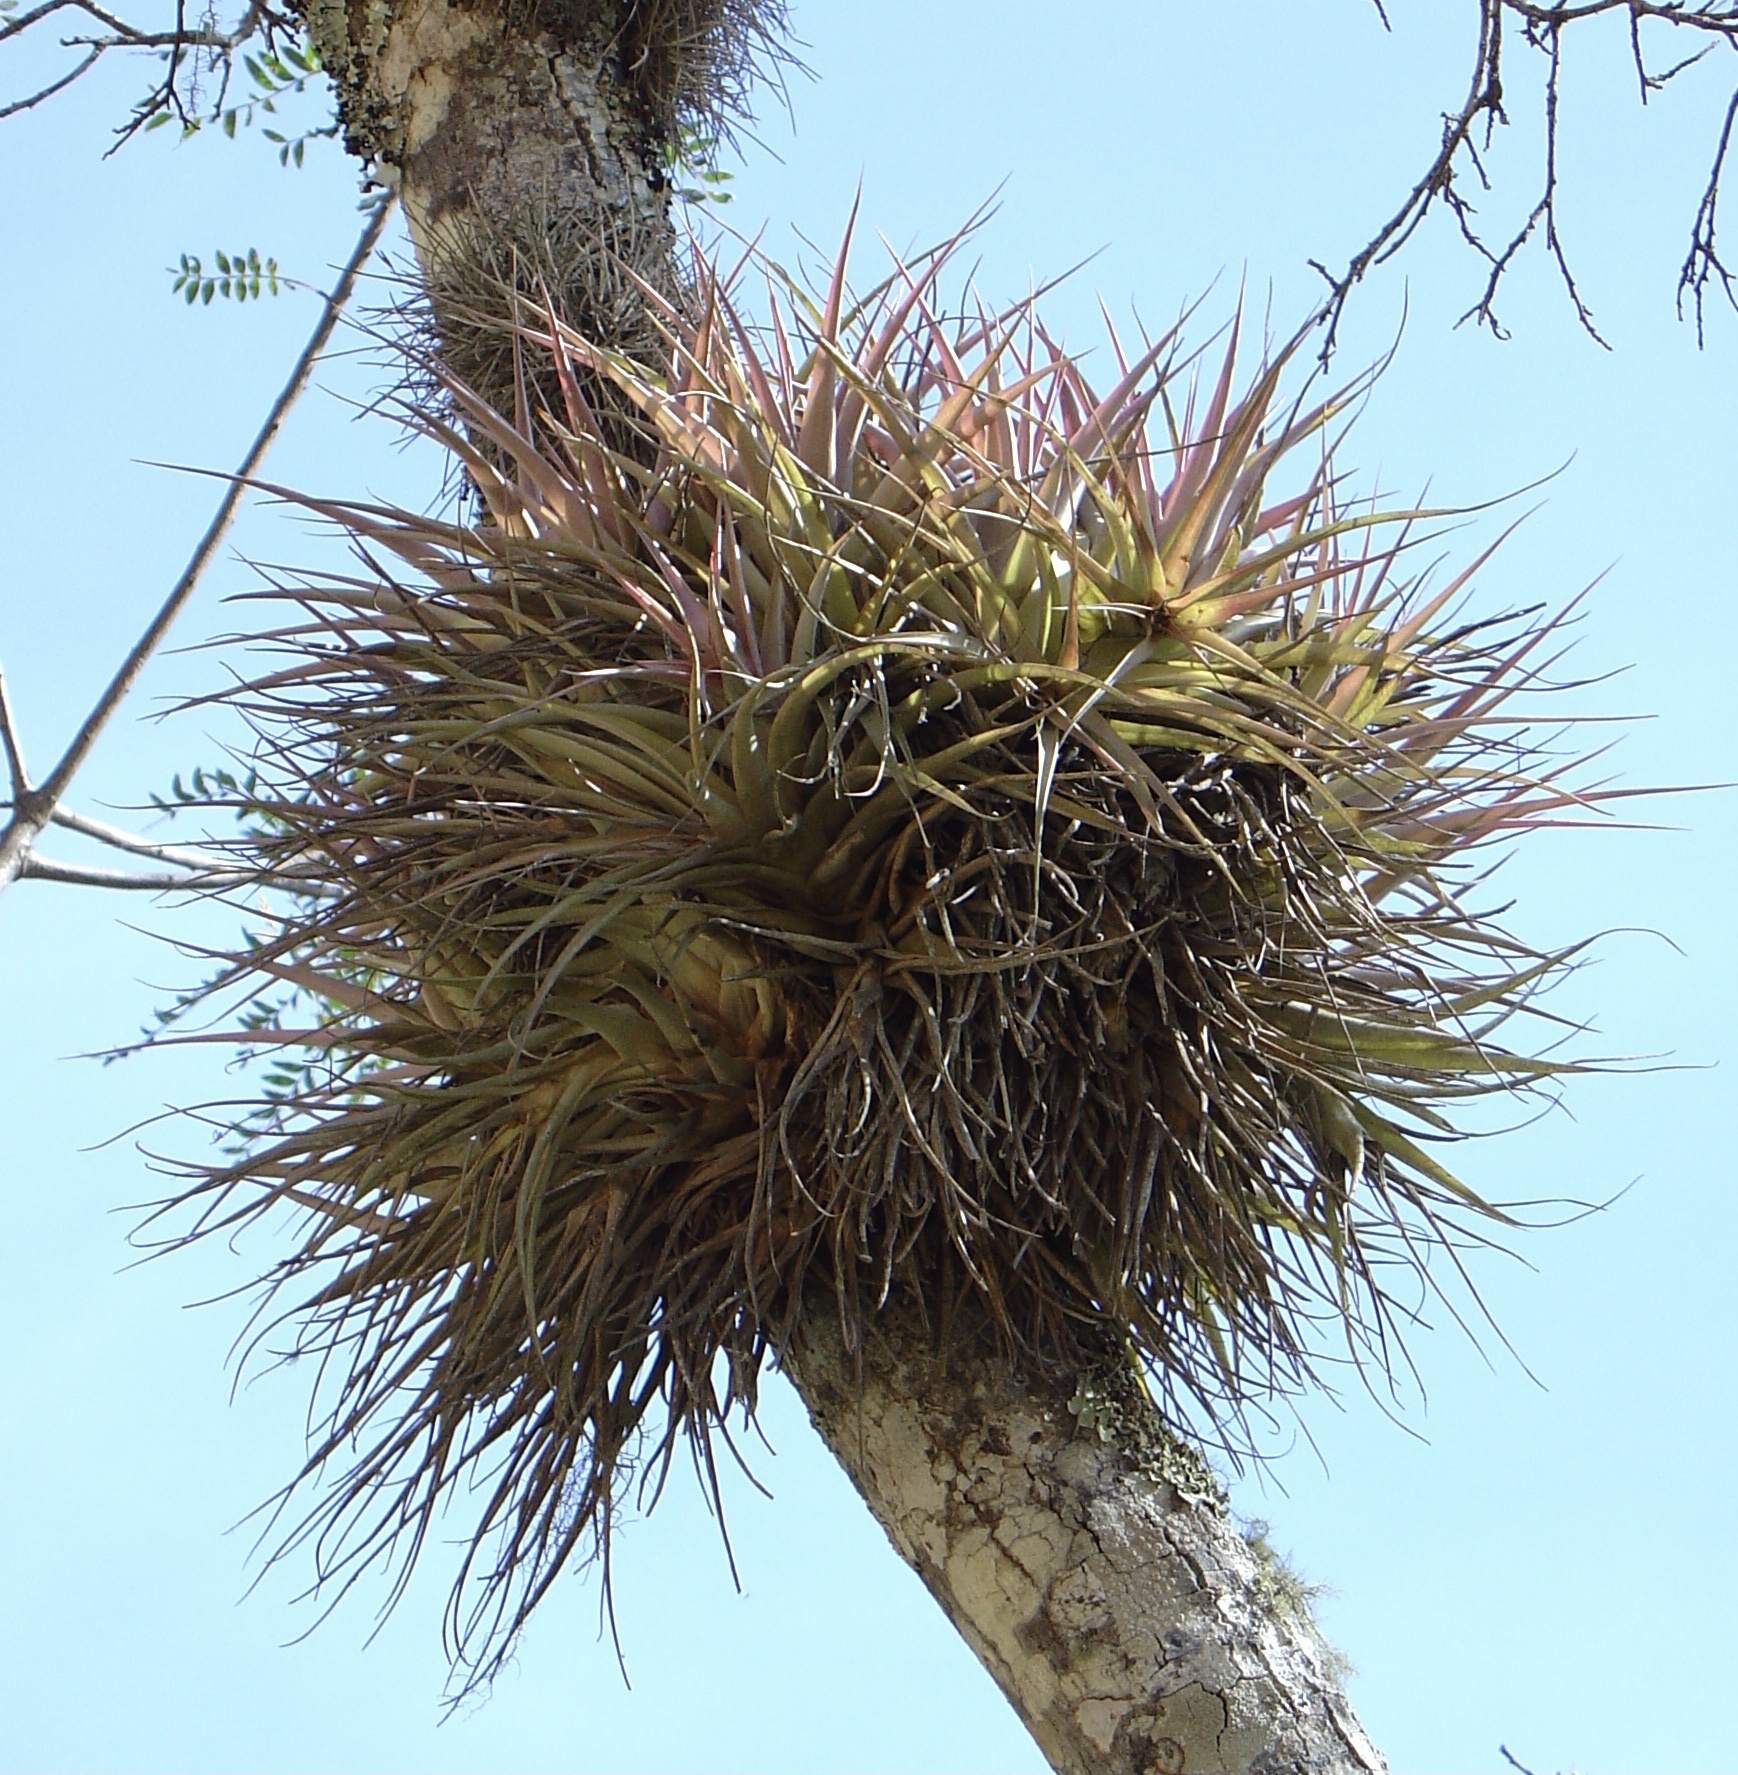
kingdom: Plantae
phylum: Tracheophyta
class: Liliopsida
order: Poales
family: Bromeliaceae
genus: Tillandsia
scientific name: Tillandsia sphaerocephala
